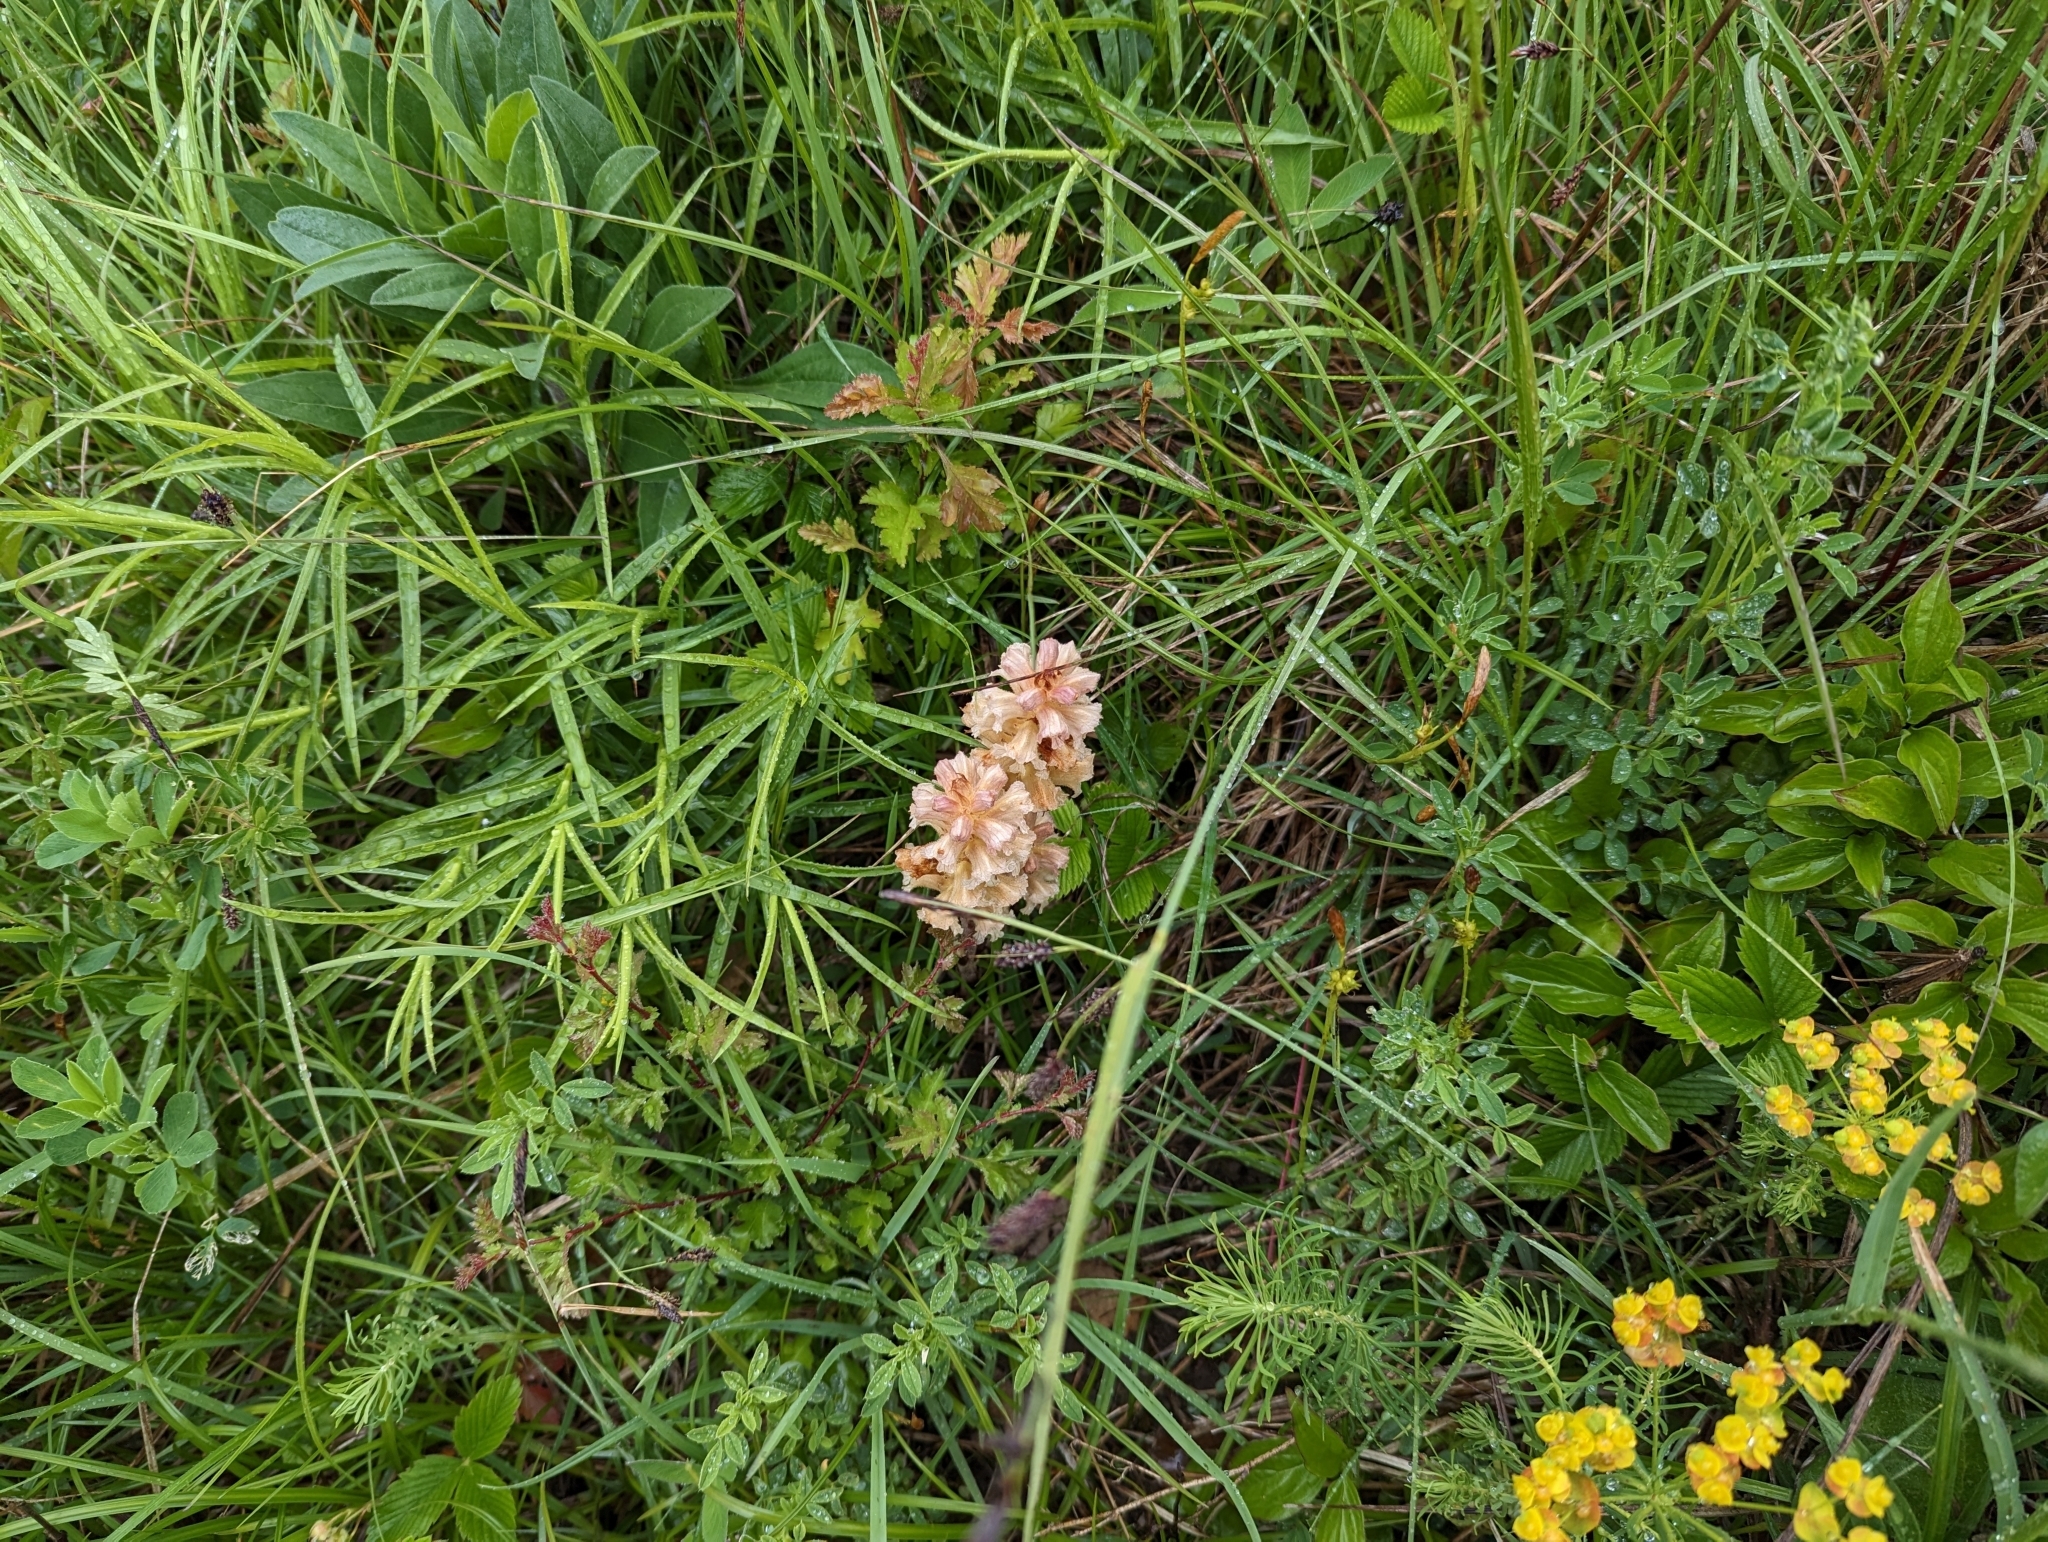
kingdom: Plantae
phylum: Tracheophyta
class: Magnoliopsida
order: Lamiales
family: Orobanchaceae
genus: Orobanche
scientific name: Orobanche lutea
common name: Yellow broomrape
